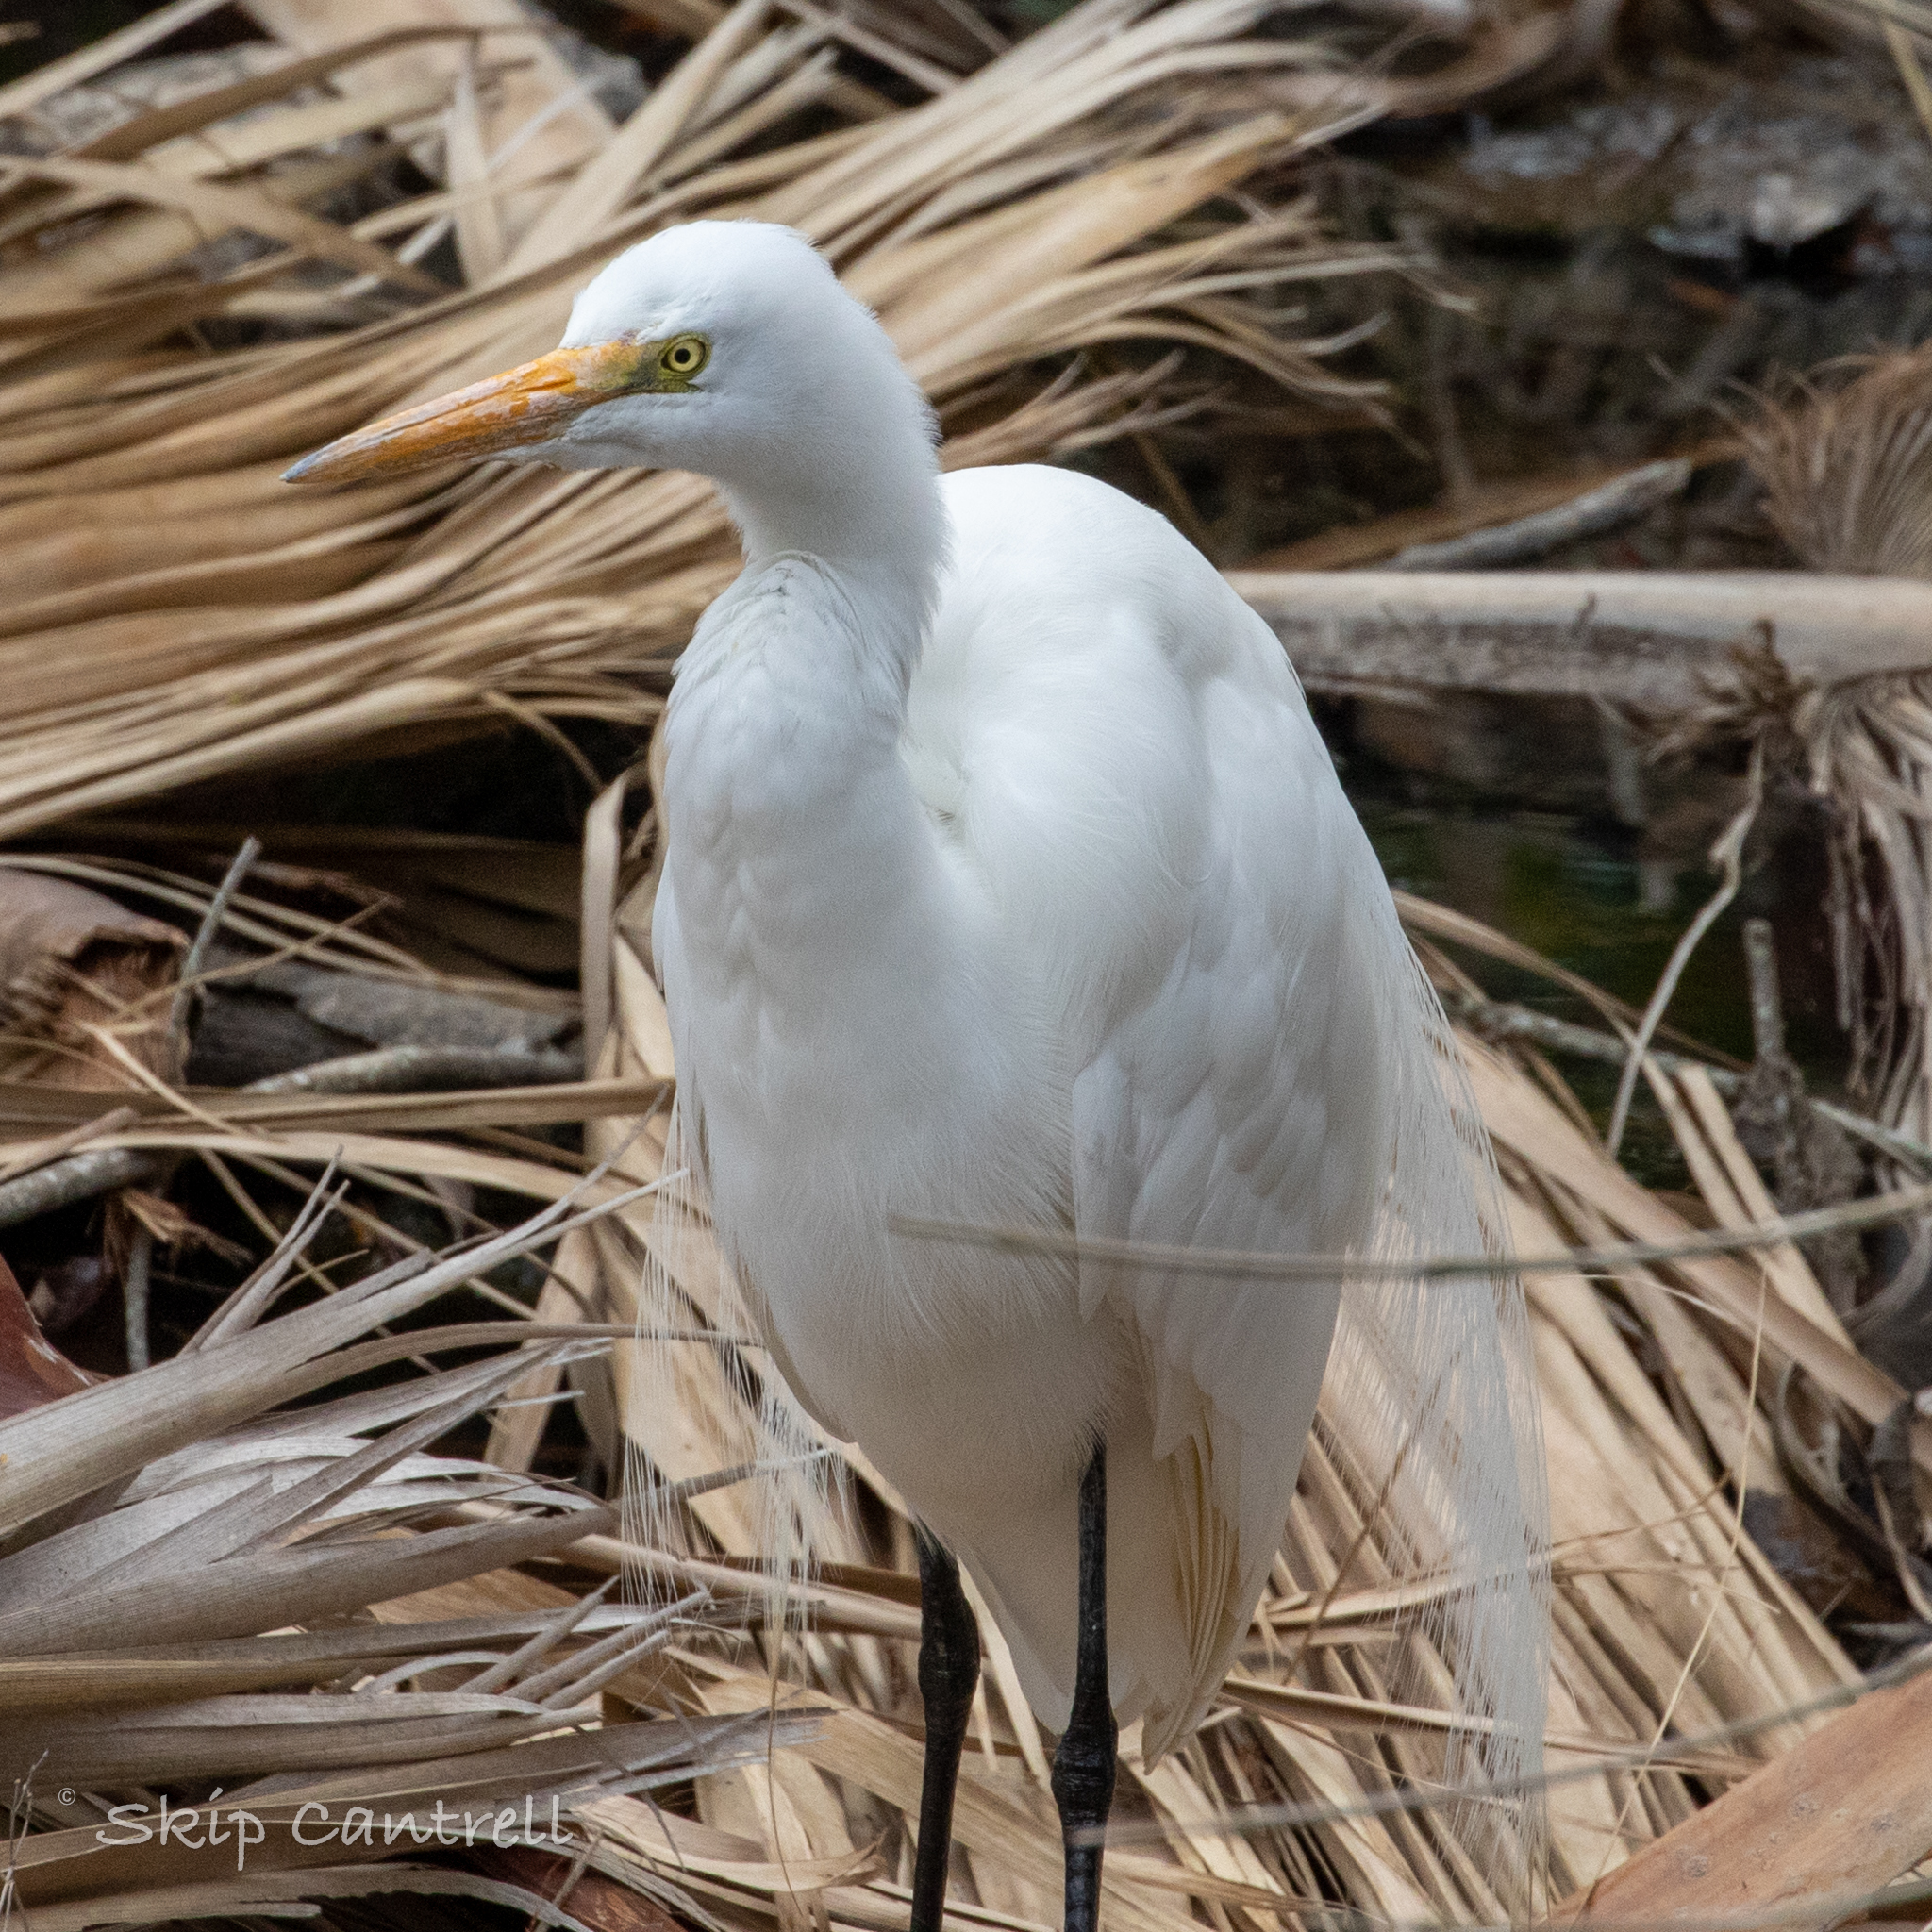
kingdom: Animalia
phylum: Chordata
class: Aves
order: Pelecaniformes
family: Ardeidae
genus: Ardea
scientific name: Ardea alba
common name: Great egret
